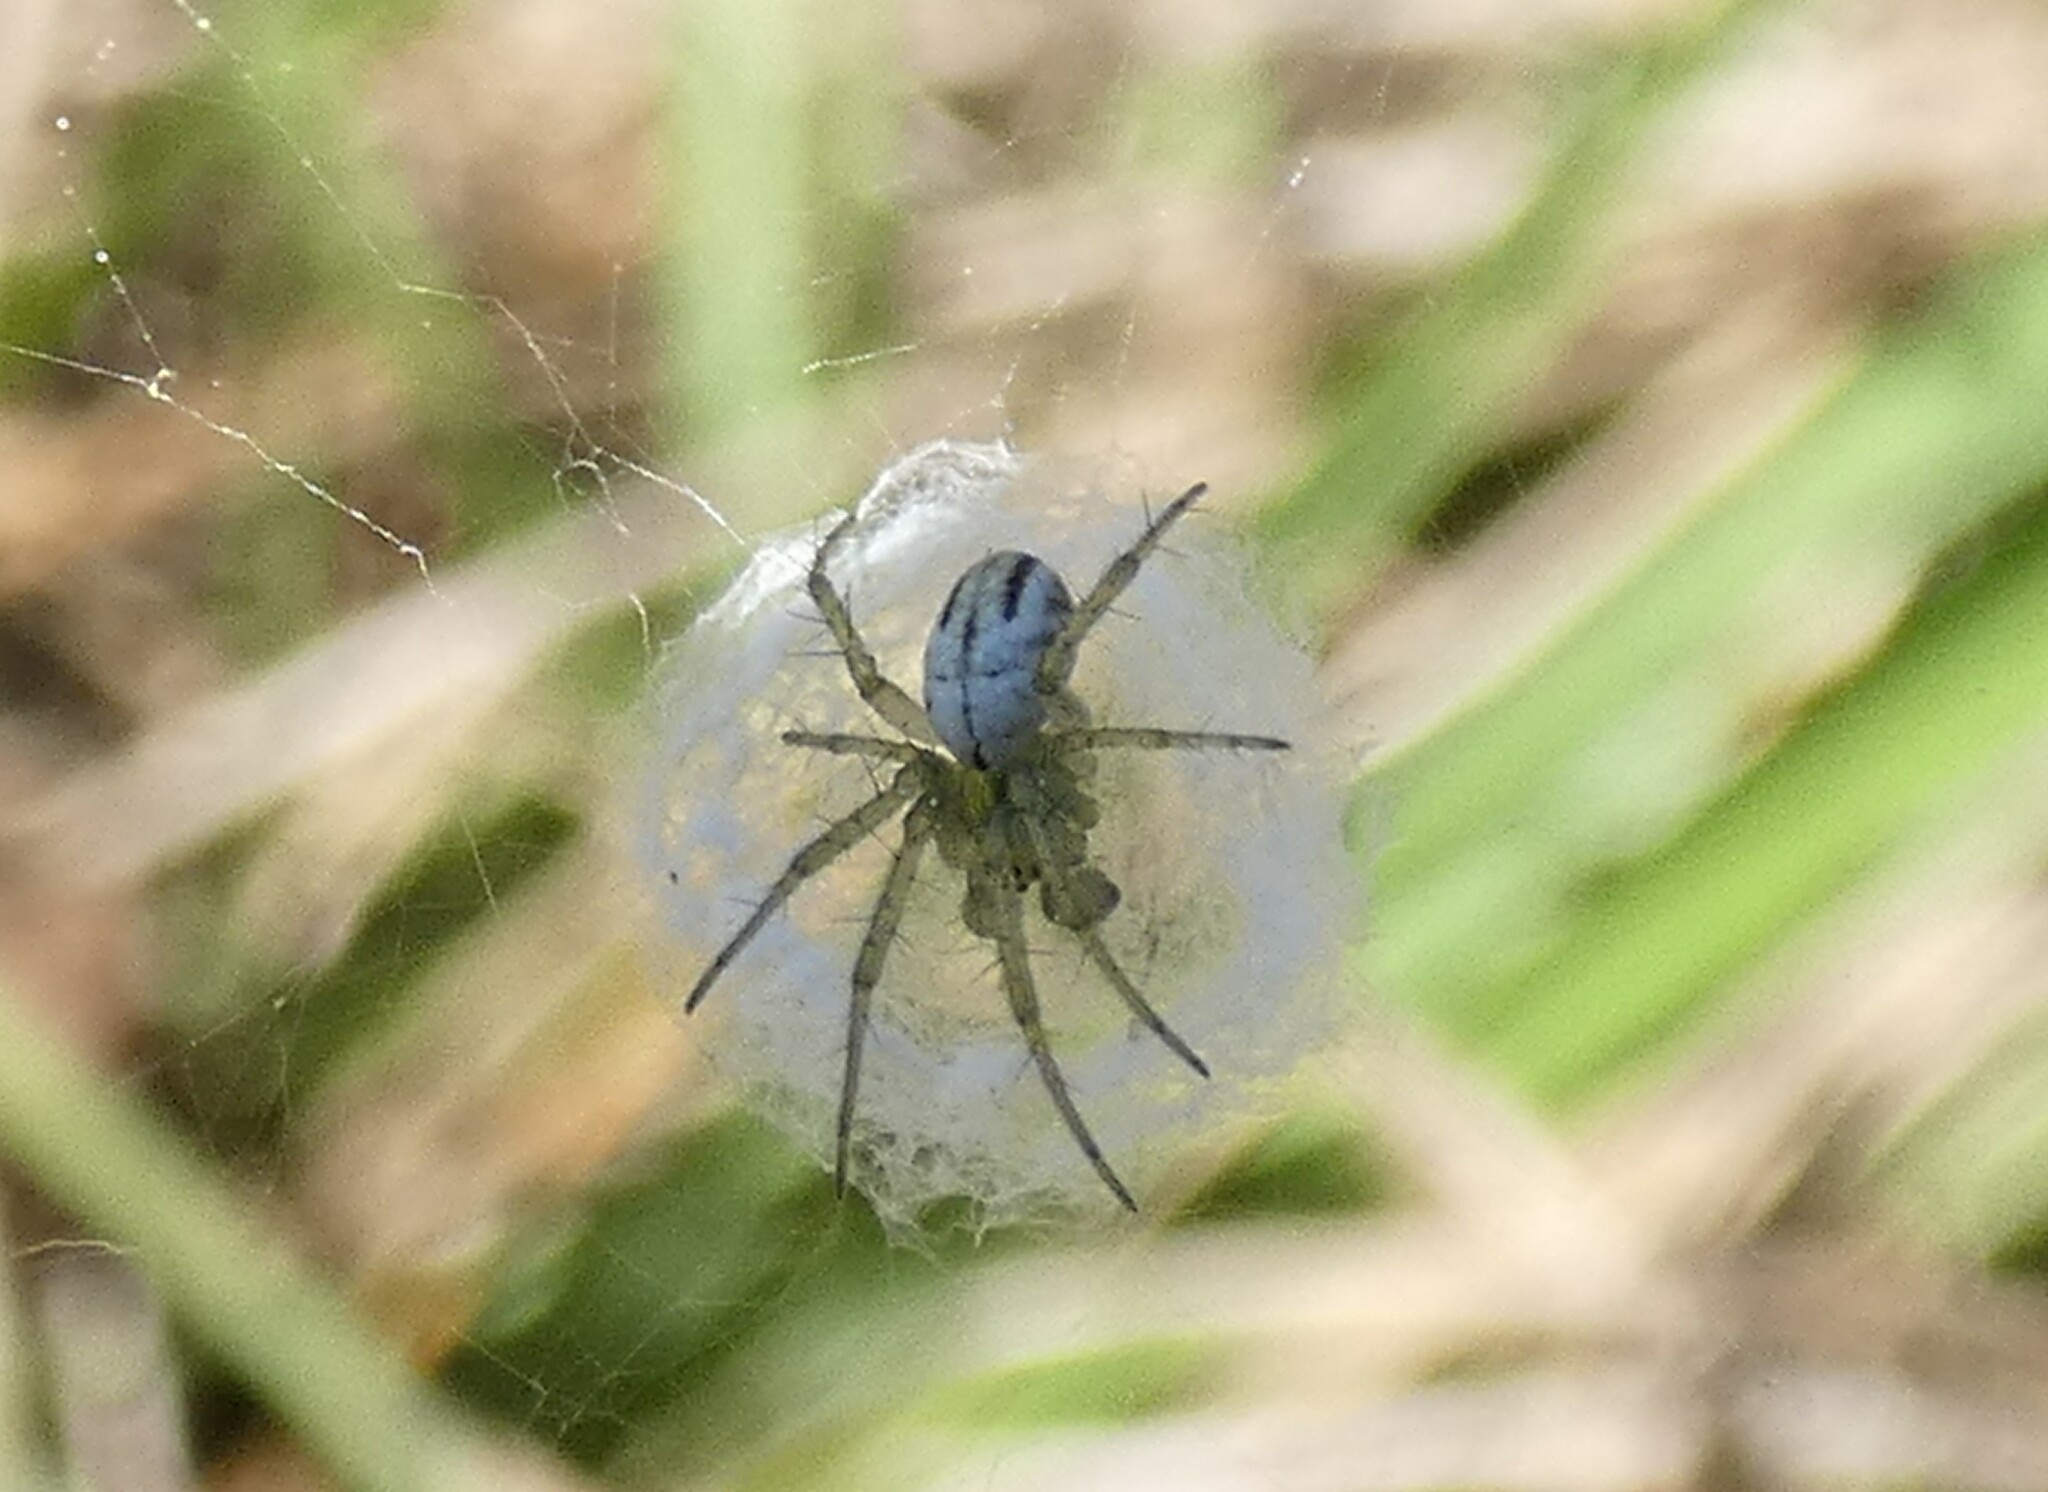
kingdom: Animalia
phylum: Arthropoda
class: Arachnida
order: Araneae
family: Araneidae
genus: Mangora
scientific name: Mangora gibberosa
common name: Lined orbweaver
